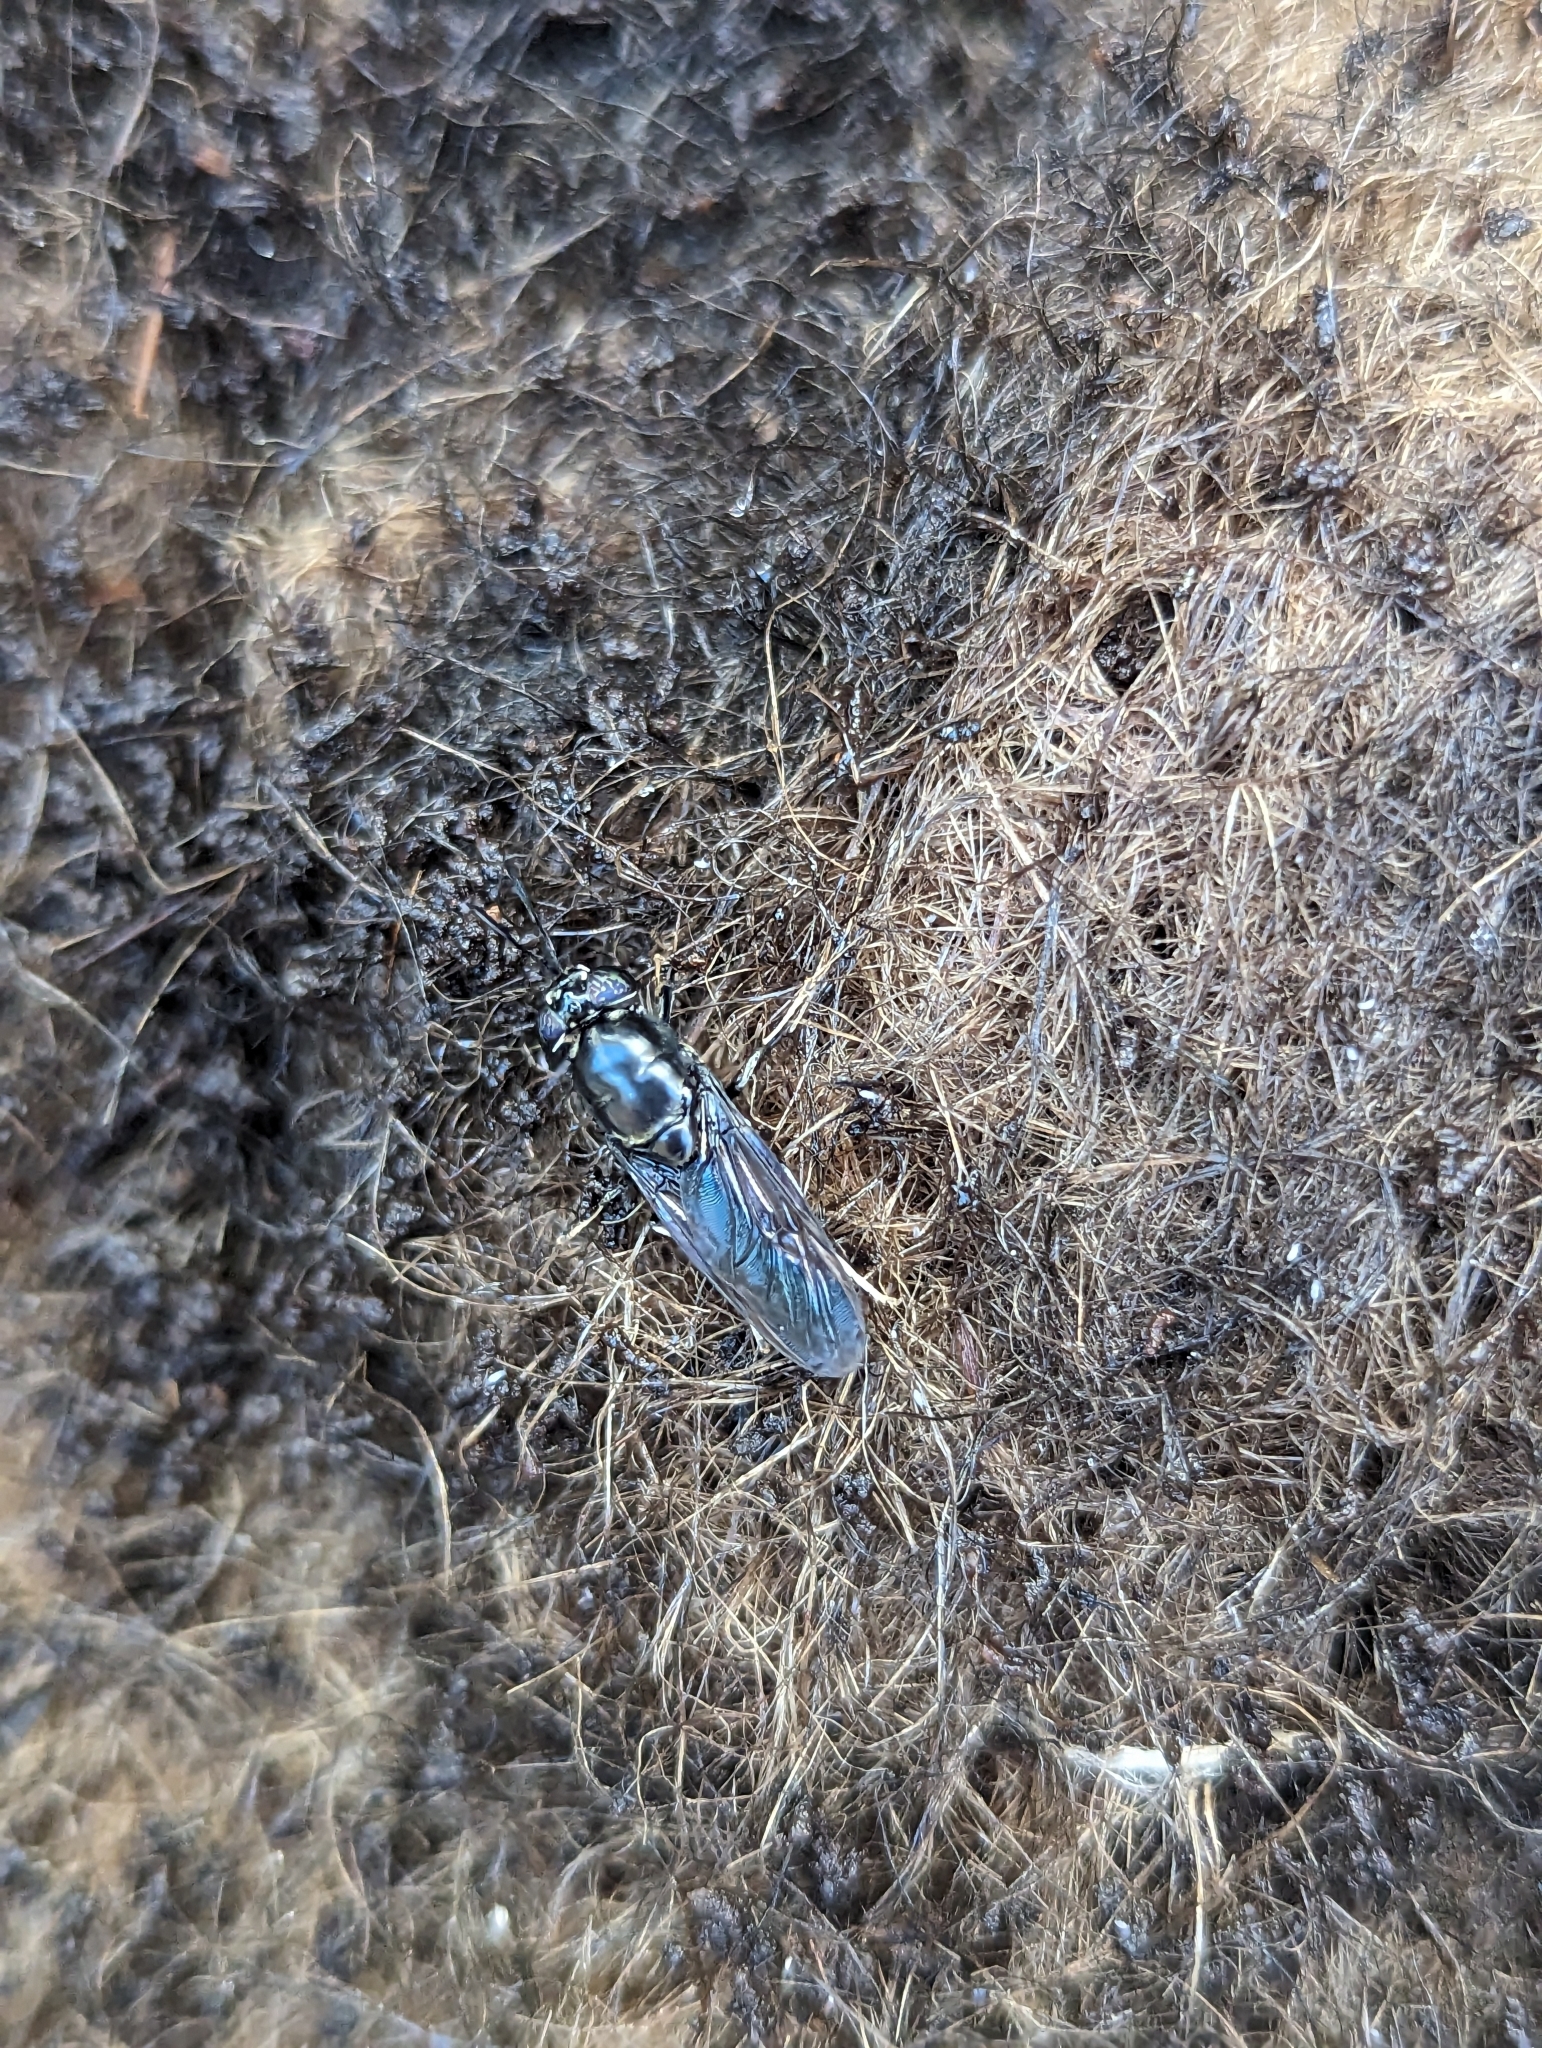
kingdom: Animalia
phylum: Arthropoda
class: Insecta
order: Diptera
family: Stratiomyidae
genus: Hermetia
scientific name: Hermetia illucens
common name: Black soldier fly
